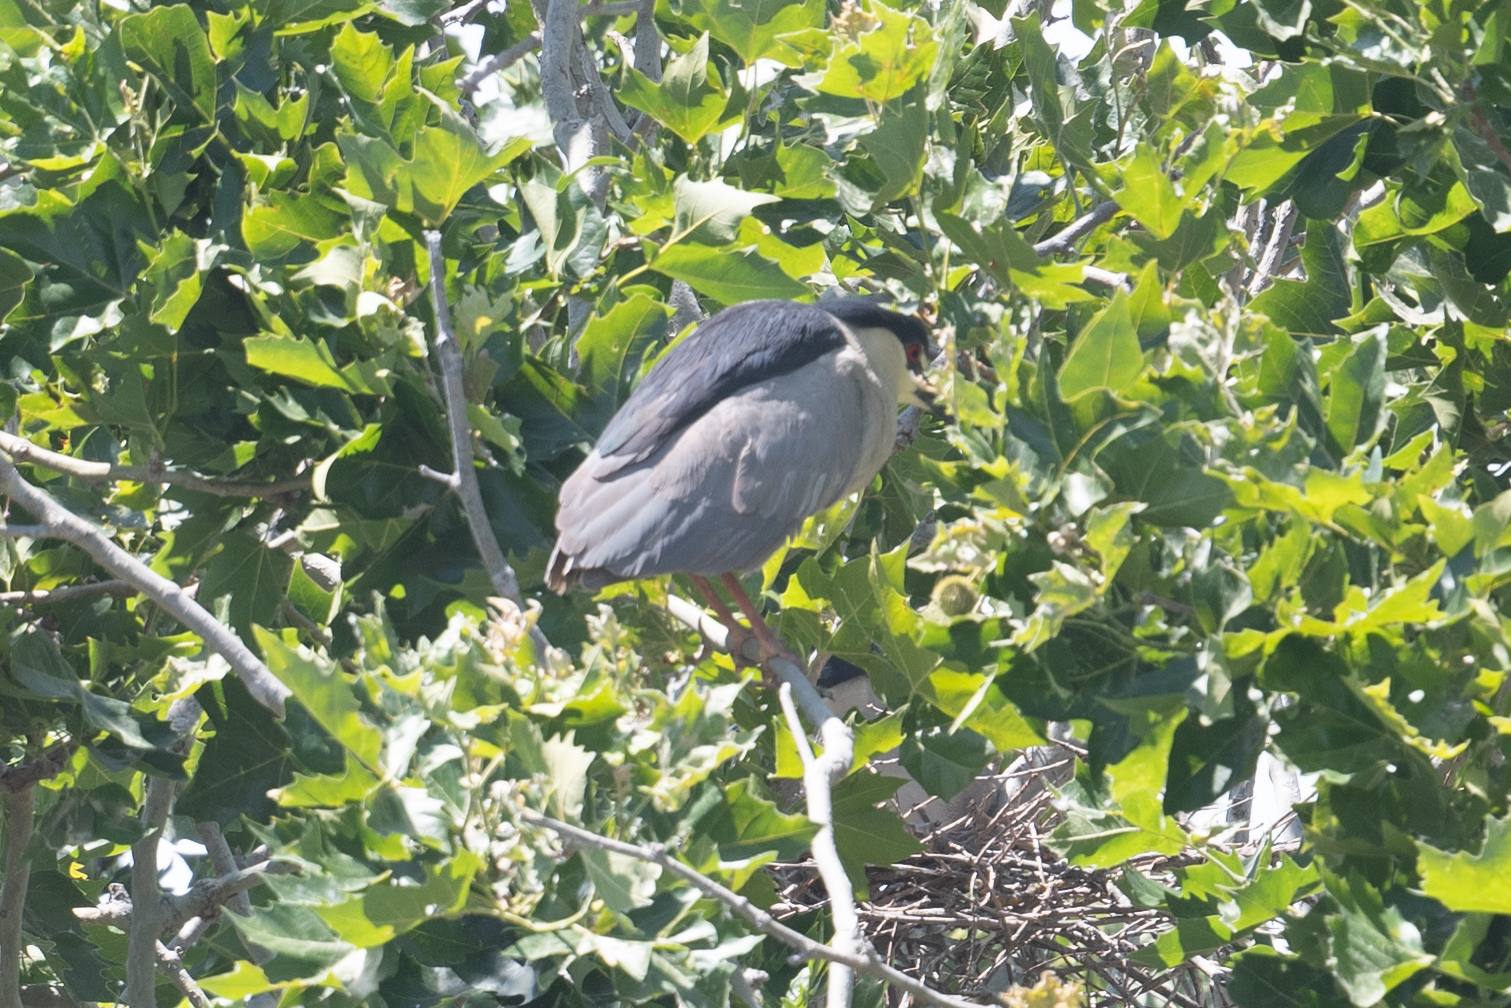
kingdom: Animalia
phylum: Chordata
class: Aves
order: Pelecaniformes
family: Ardeidae
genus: Nycticorax
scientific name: Nycticorax nycticorax
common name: Black-crowned night heron
